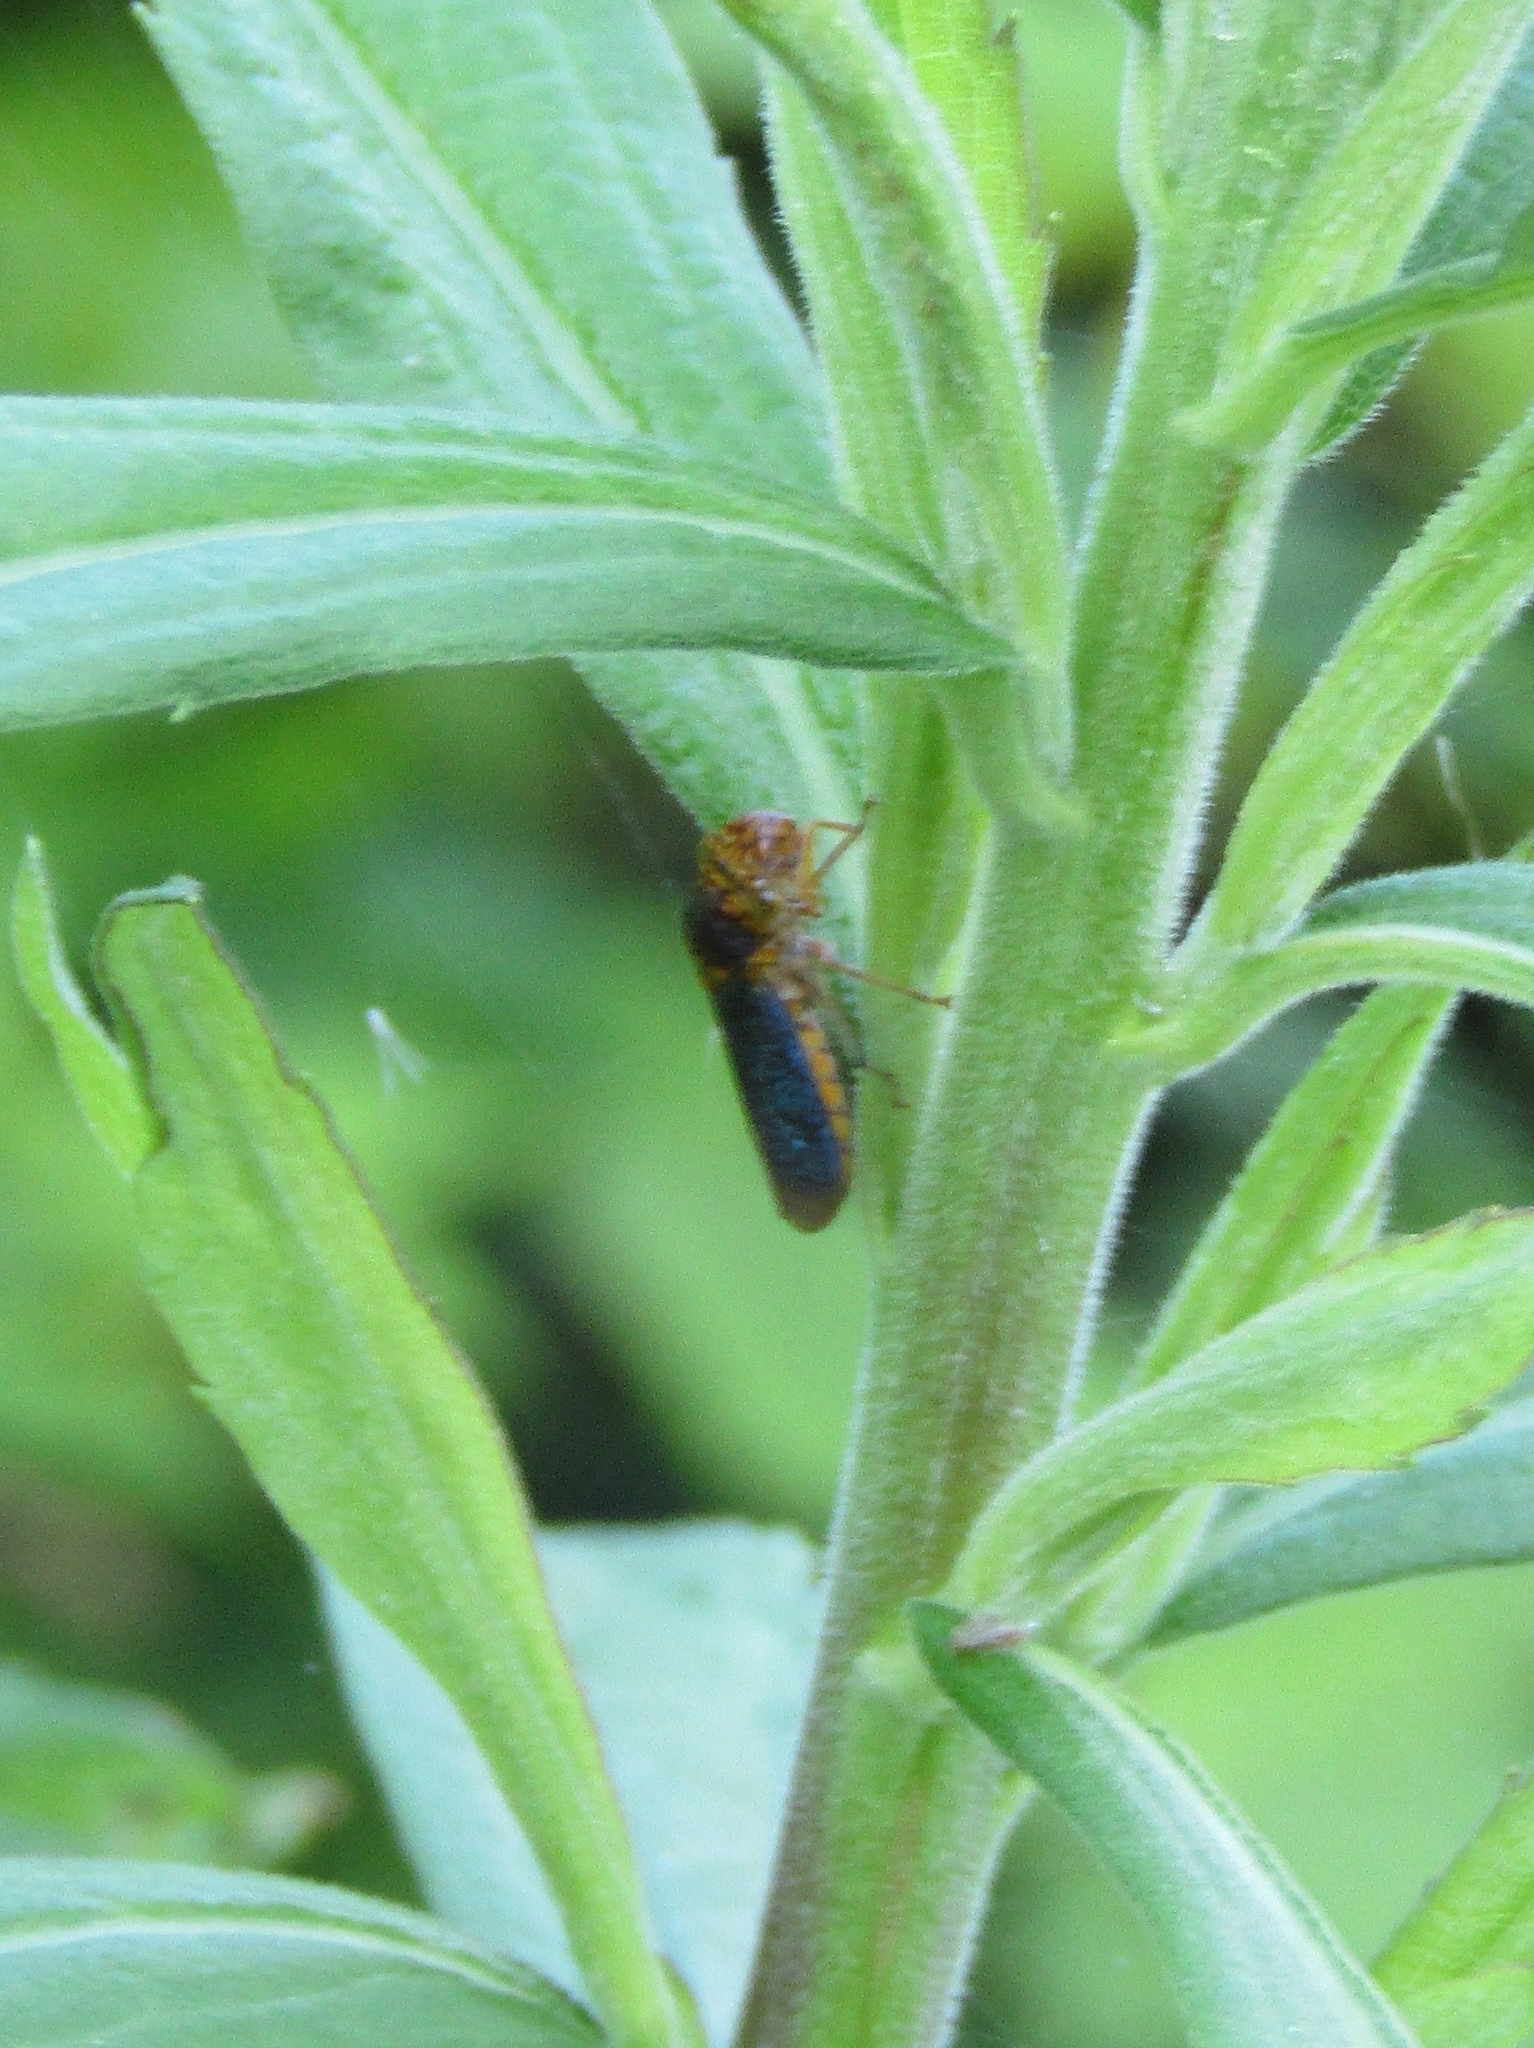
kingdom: Animalia
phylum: Arthropoda
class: Insecta
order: Hemiptera
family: Cicadellidae
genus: Oncometopia
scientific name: Oncometopia orbona
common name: Broad-headed sharpshooter
